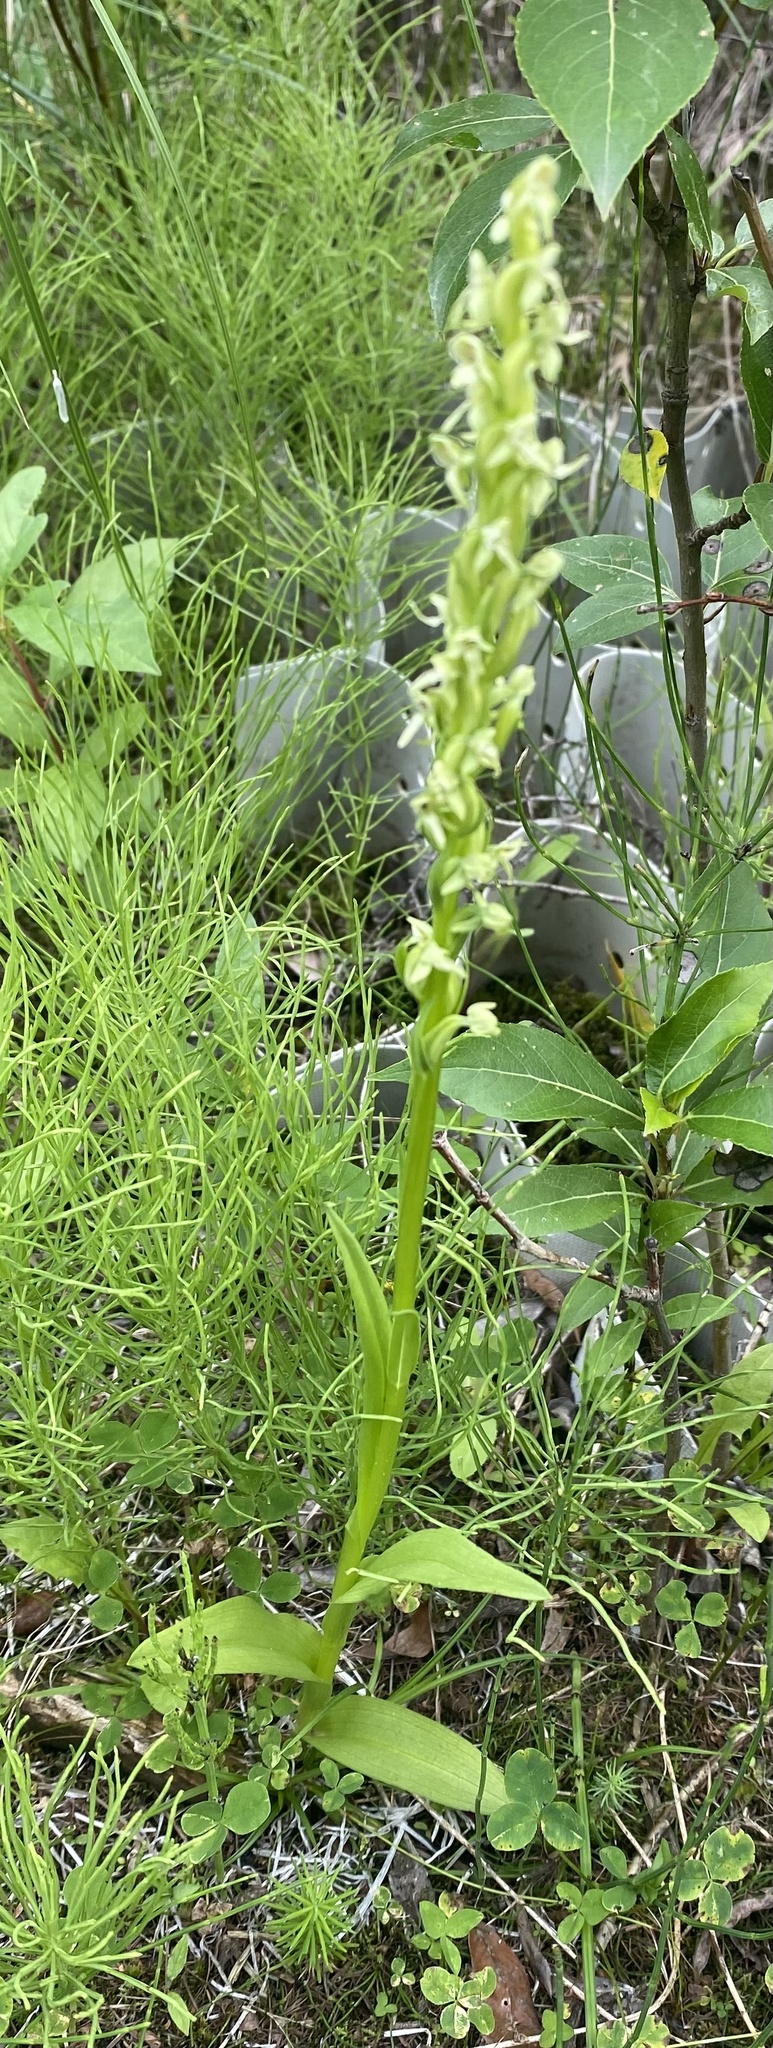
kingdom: Plantae
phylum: Tracheophyta
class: Liliopsida
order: Asparagales
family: Orchidaceae
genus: Platanthera
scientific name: Platanthera huronensis
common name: Fragrant green orchid
